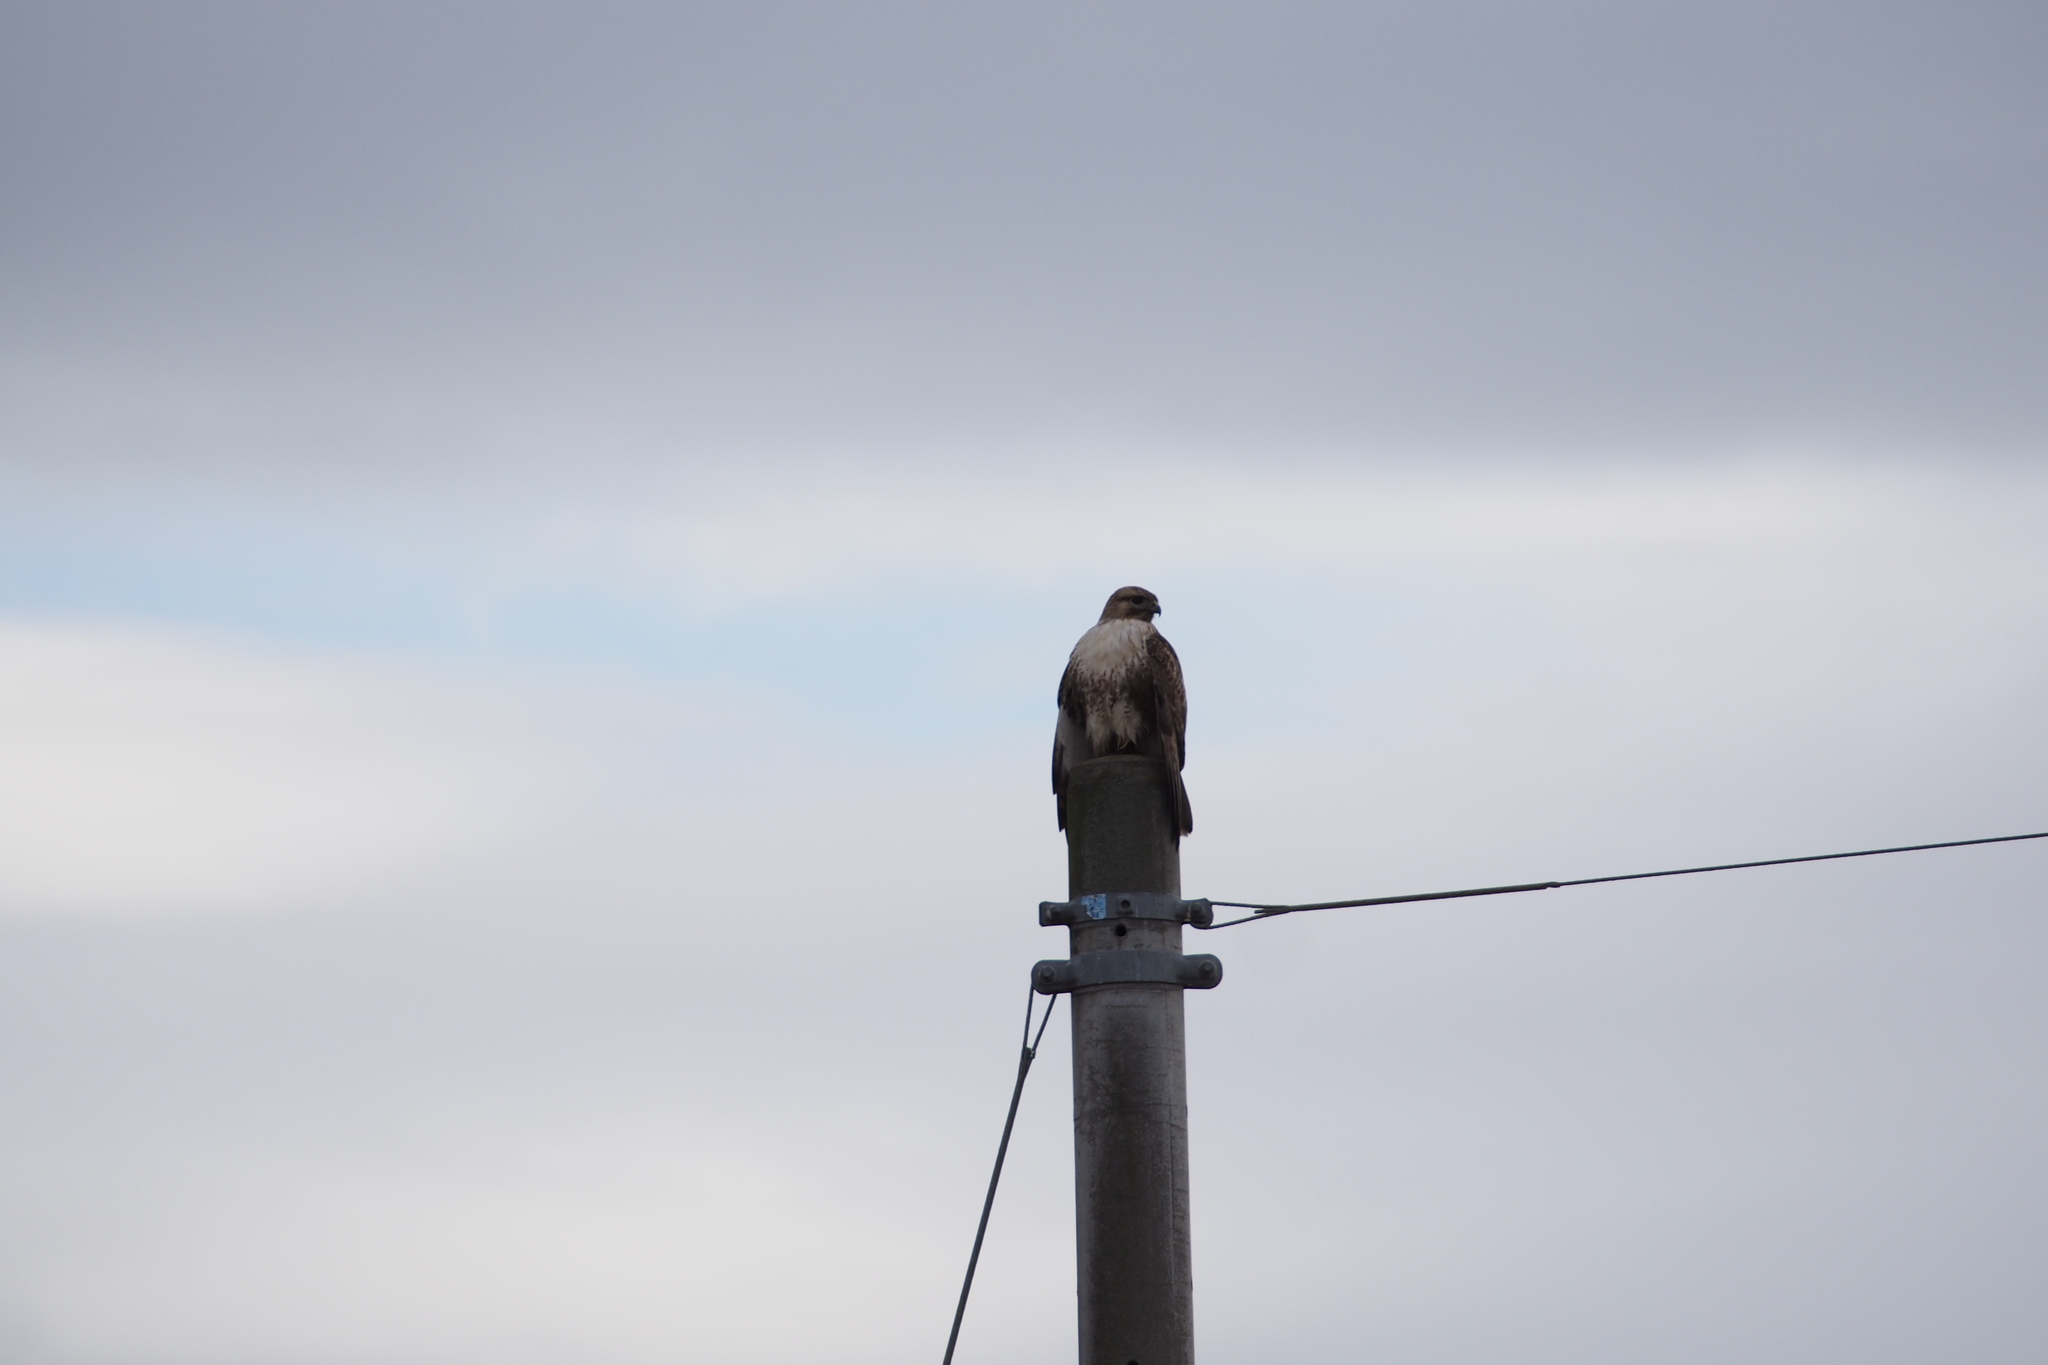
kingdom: Animalia
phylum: Chordata
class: Aves
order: Accipitriformes
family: Accipitridae
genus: Buteo
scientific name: Buteo japonicus
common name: Eastern buzzard
